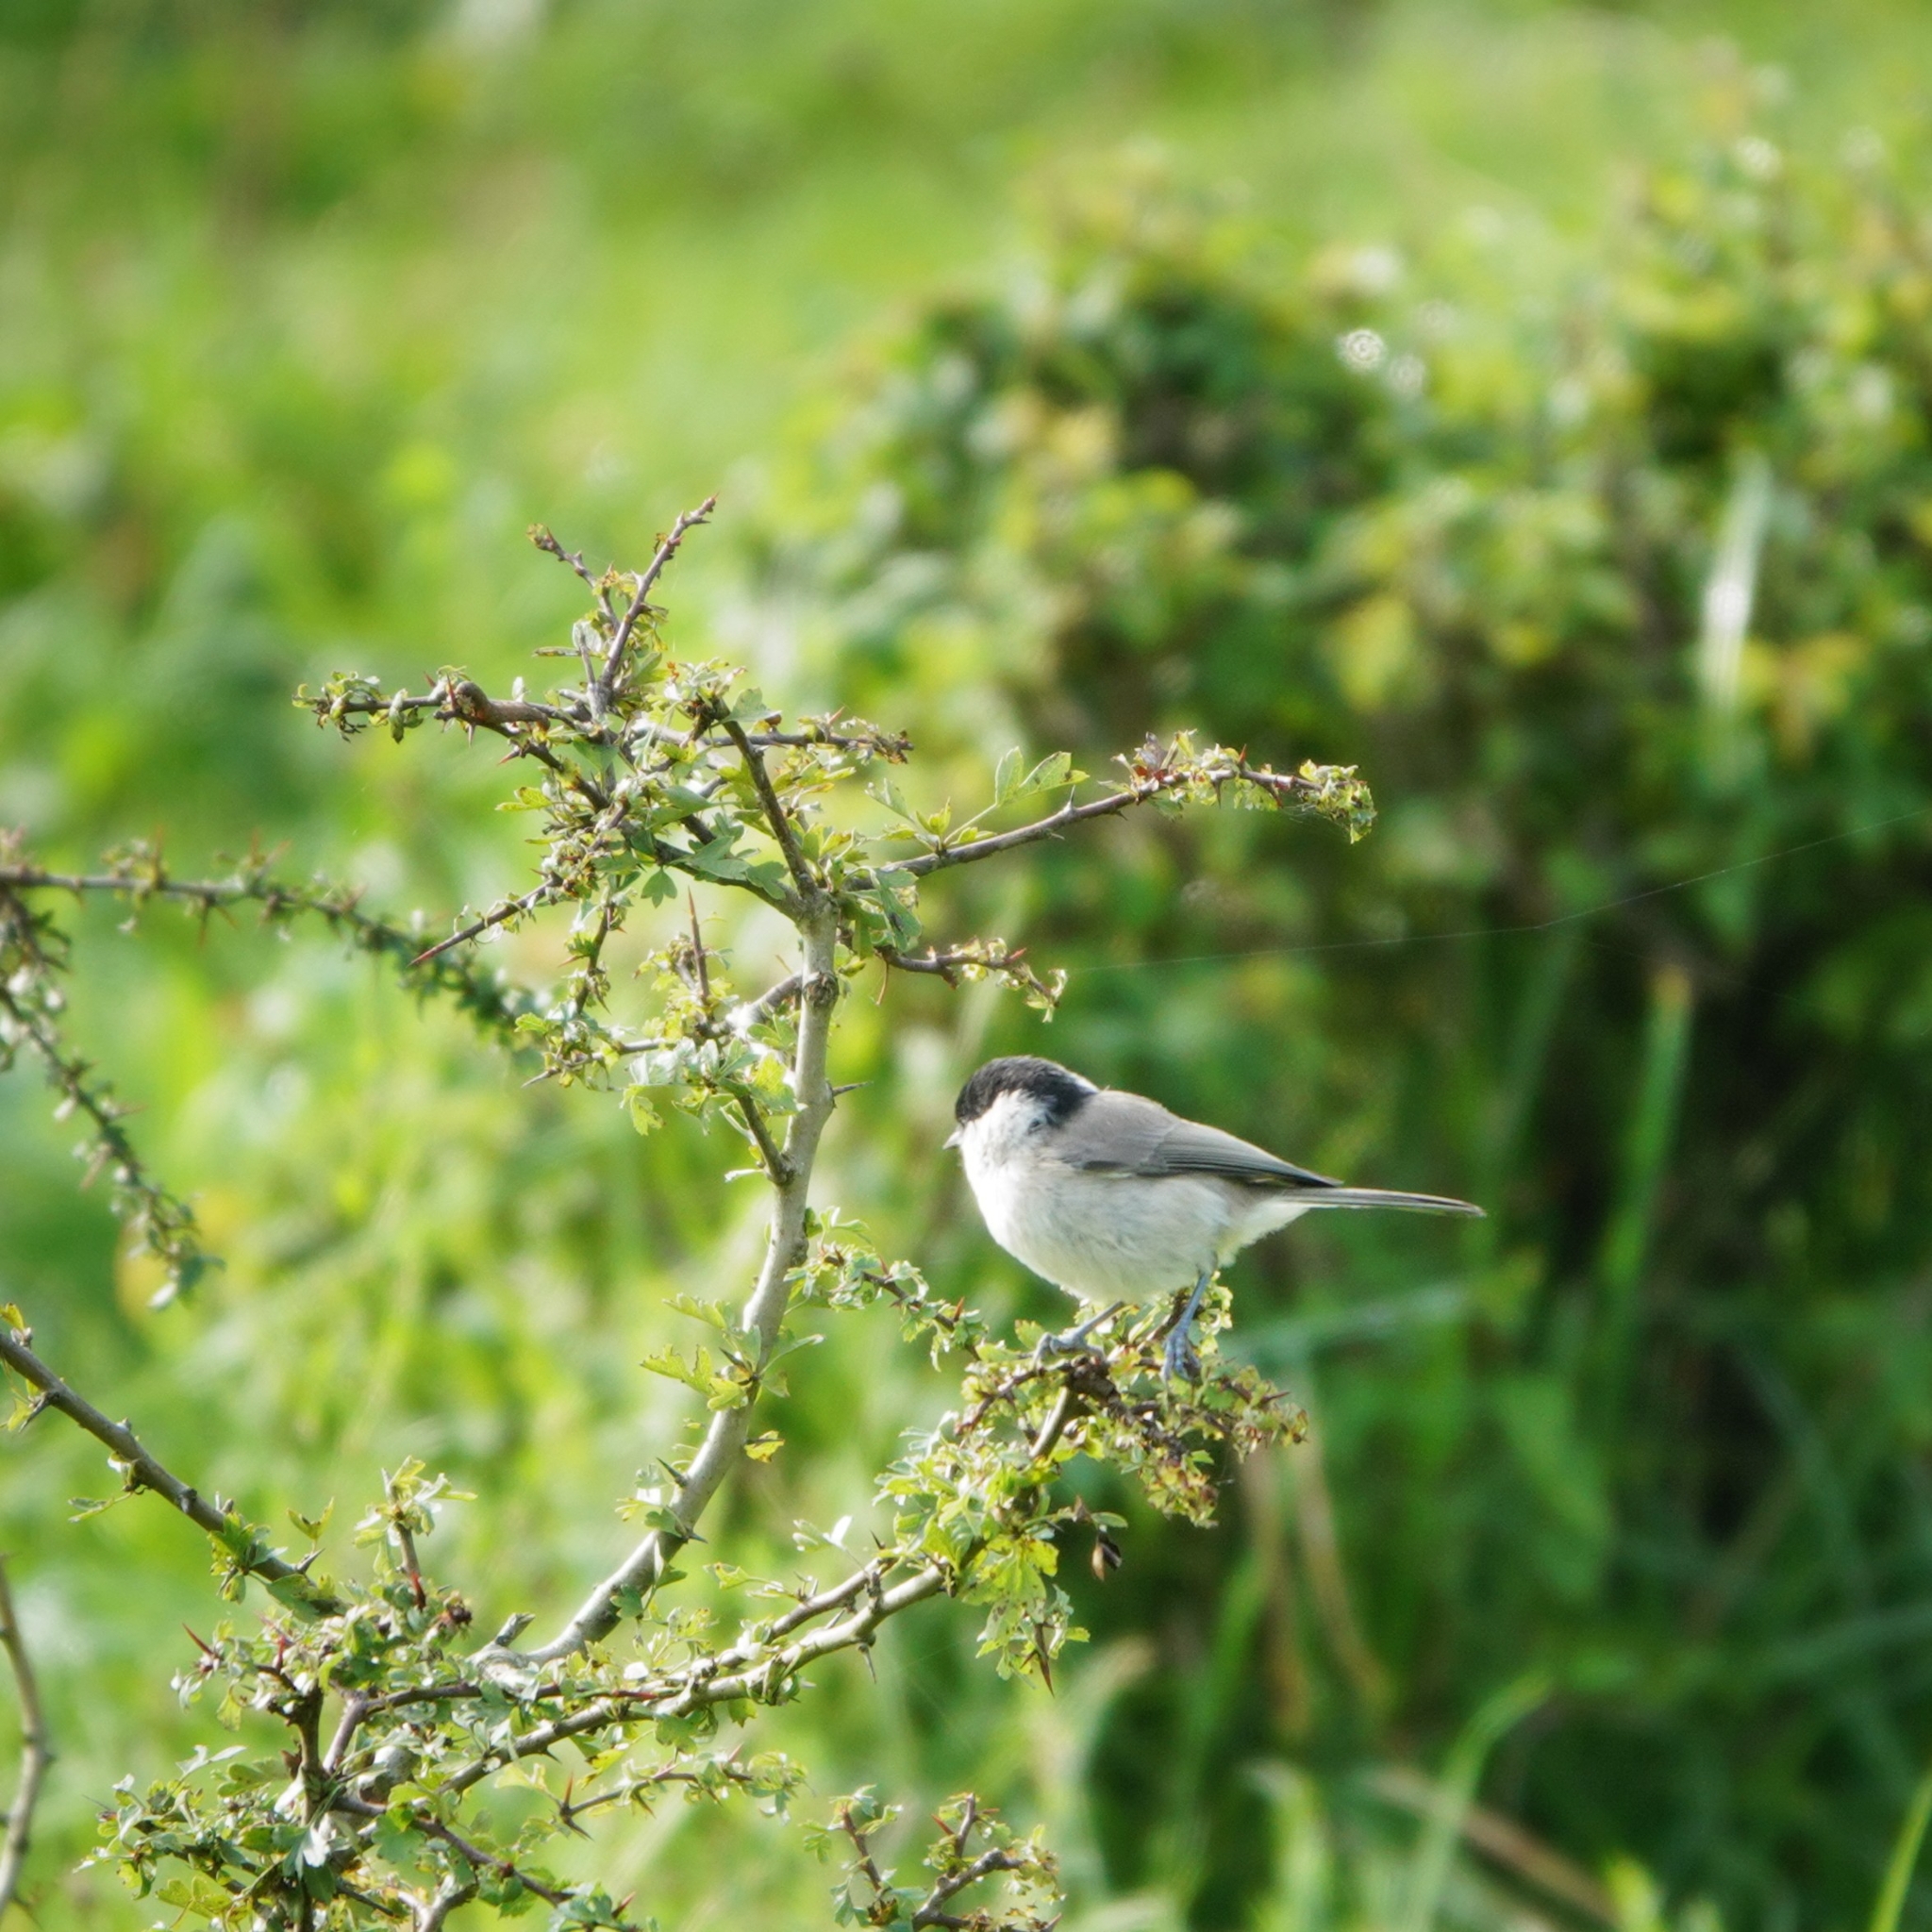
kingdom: Animalia
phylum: Chordata
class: Aves
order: Passeriformes
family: Paridae
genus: Poecile
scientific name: Poecile palustris
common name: Marsh tit
